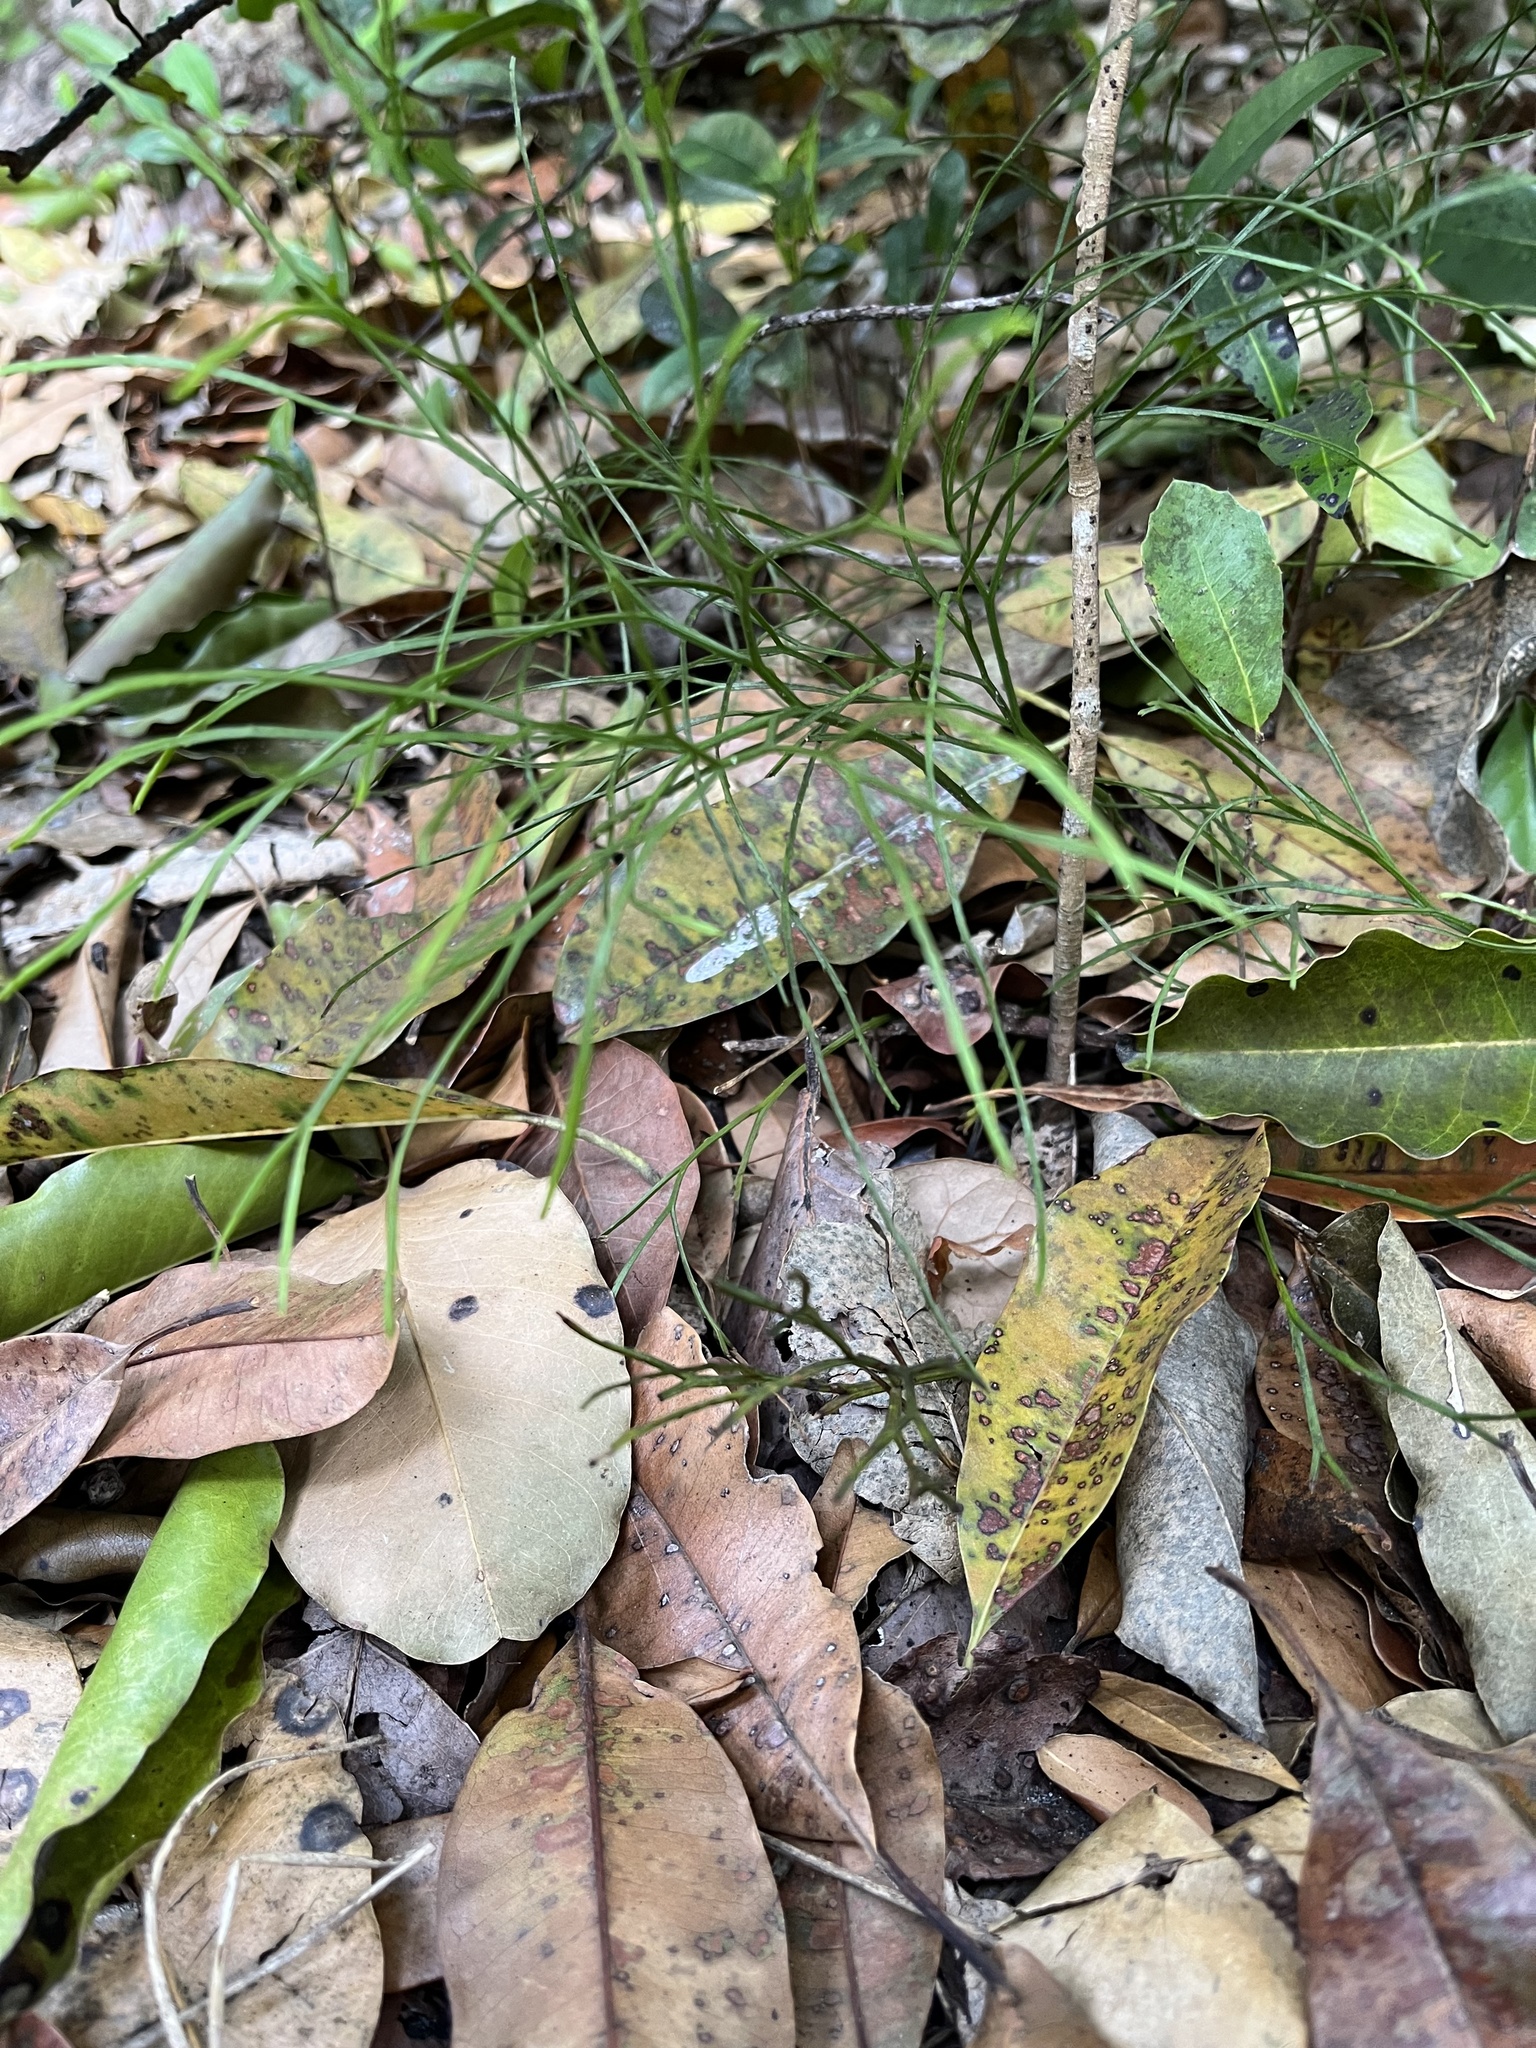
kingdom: Plantae
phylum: Tracheophyta
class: Polypodiopsida
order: Psilotales
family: Psilotaceae
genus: Psilotum
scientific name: Psilotum nudum
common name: Skeleton fork fern
